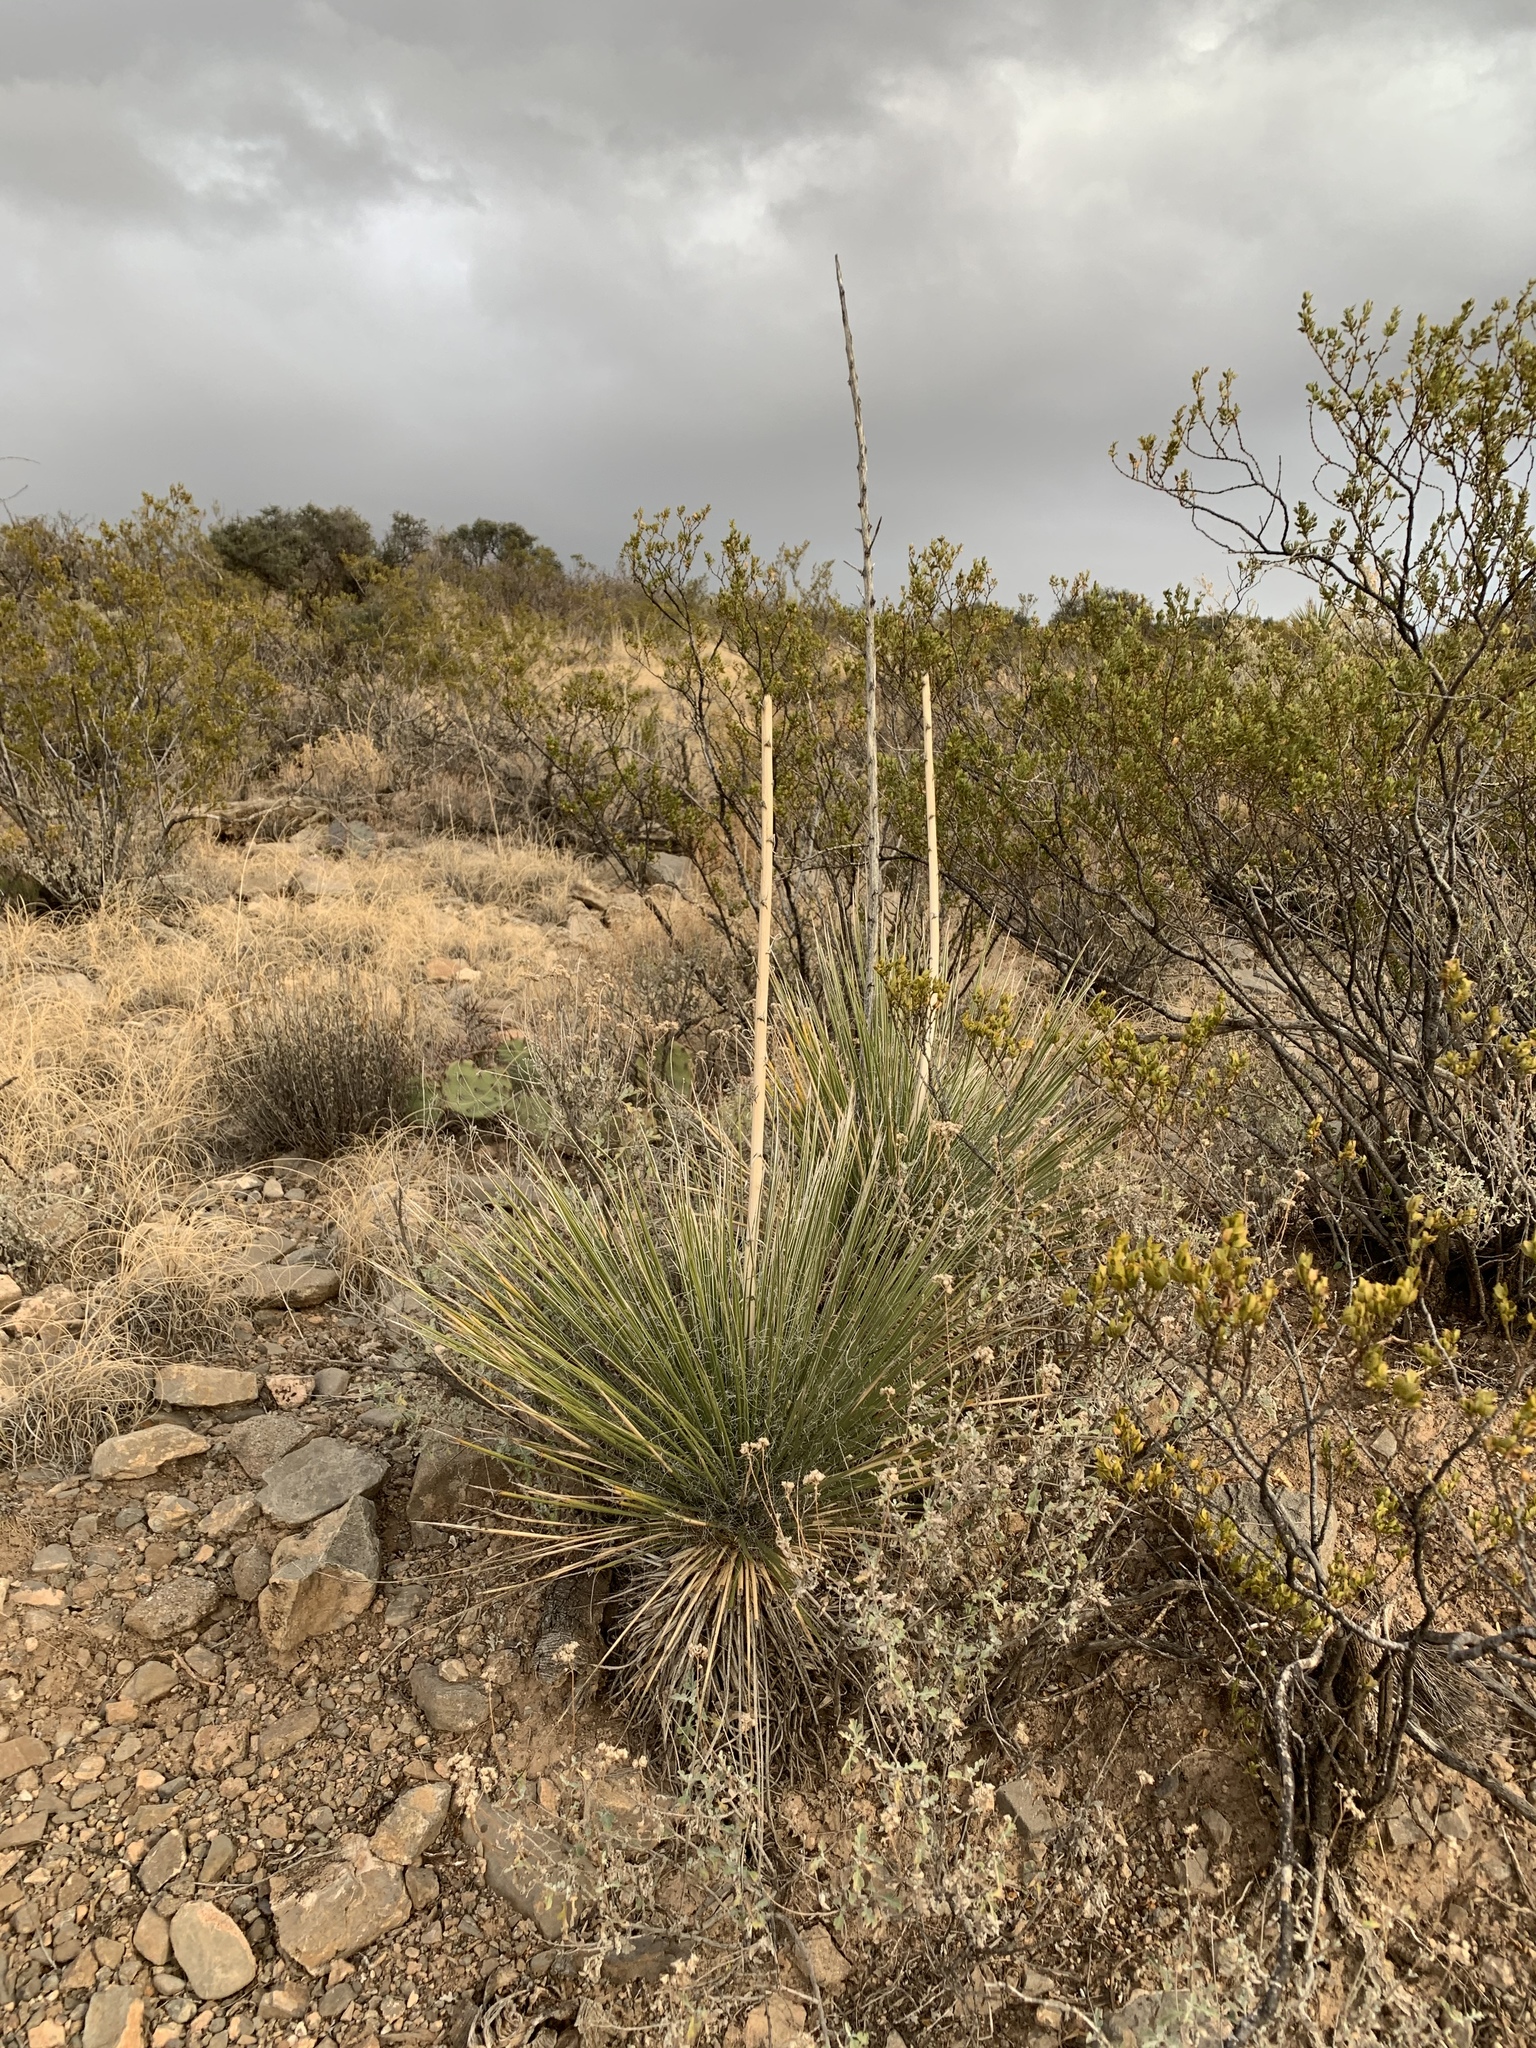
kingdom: Plantae
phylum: Tracheophyta
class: Liliopsida
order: Asparagales
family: Asparagaceae
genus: Yucca
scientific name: Yucca elata
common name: Palmella
